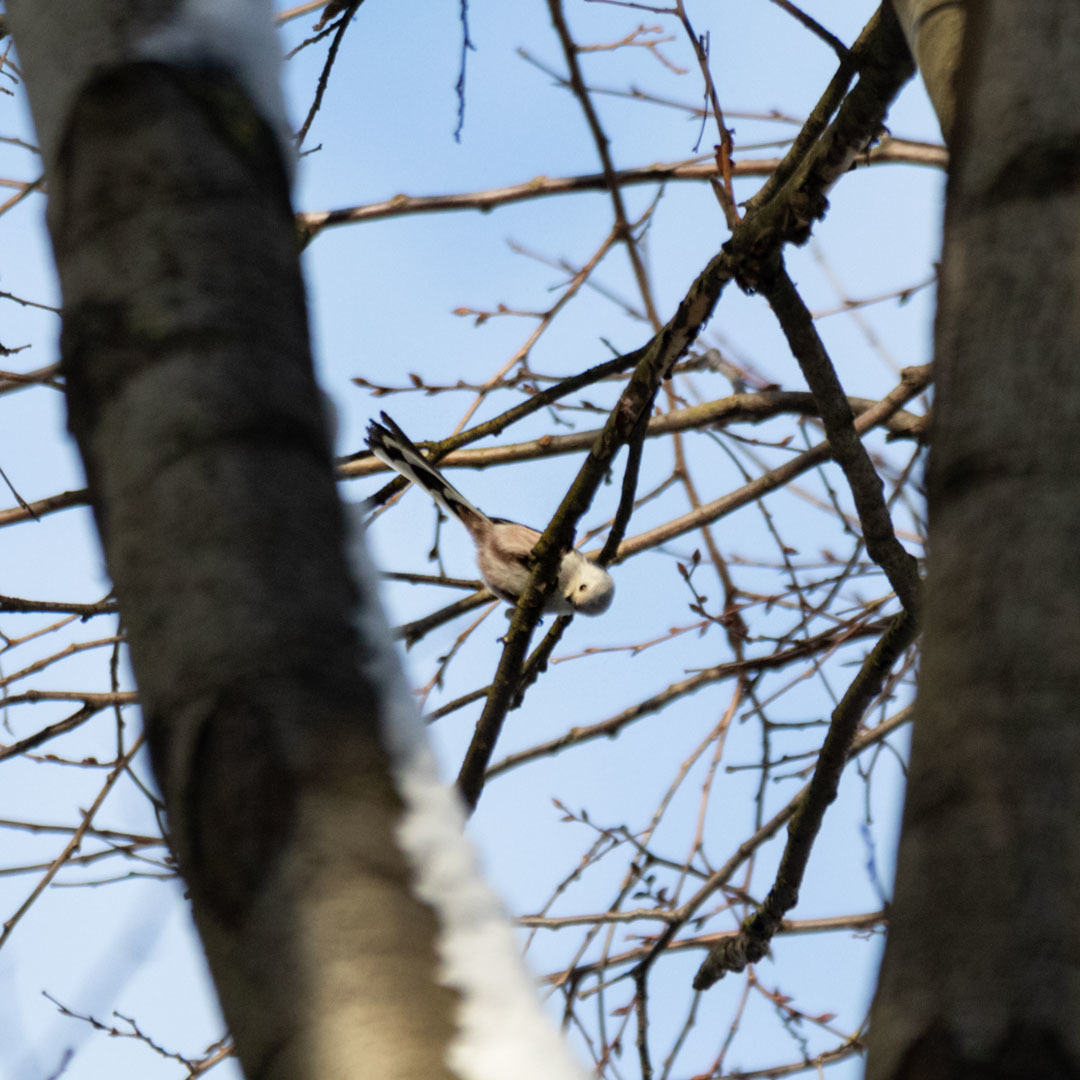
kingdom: Animalia
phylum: Chordata
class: Aves
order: Passeriformes
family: Aegithalidae
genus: Aegithalos
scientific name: Aegithalos caudatus
